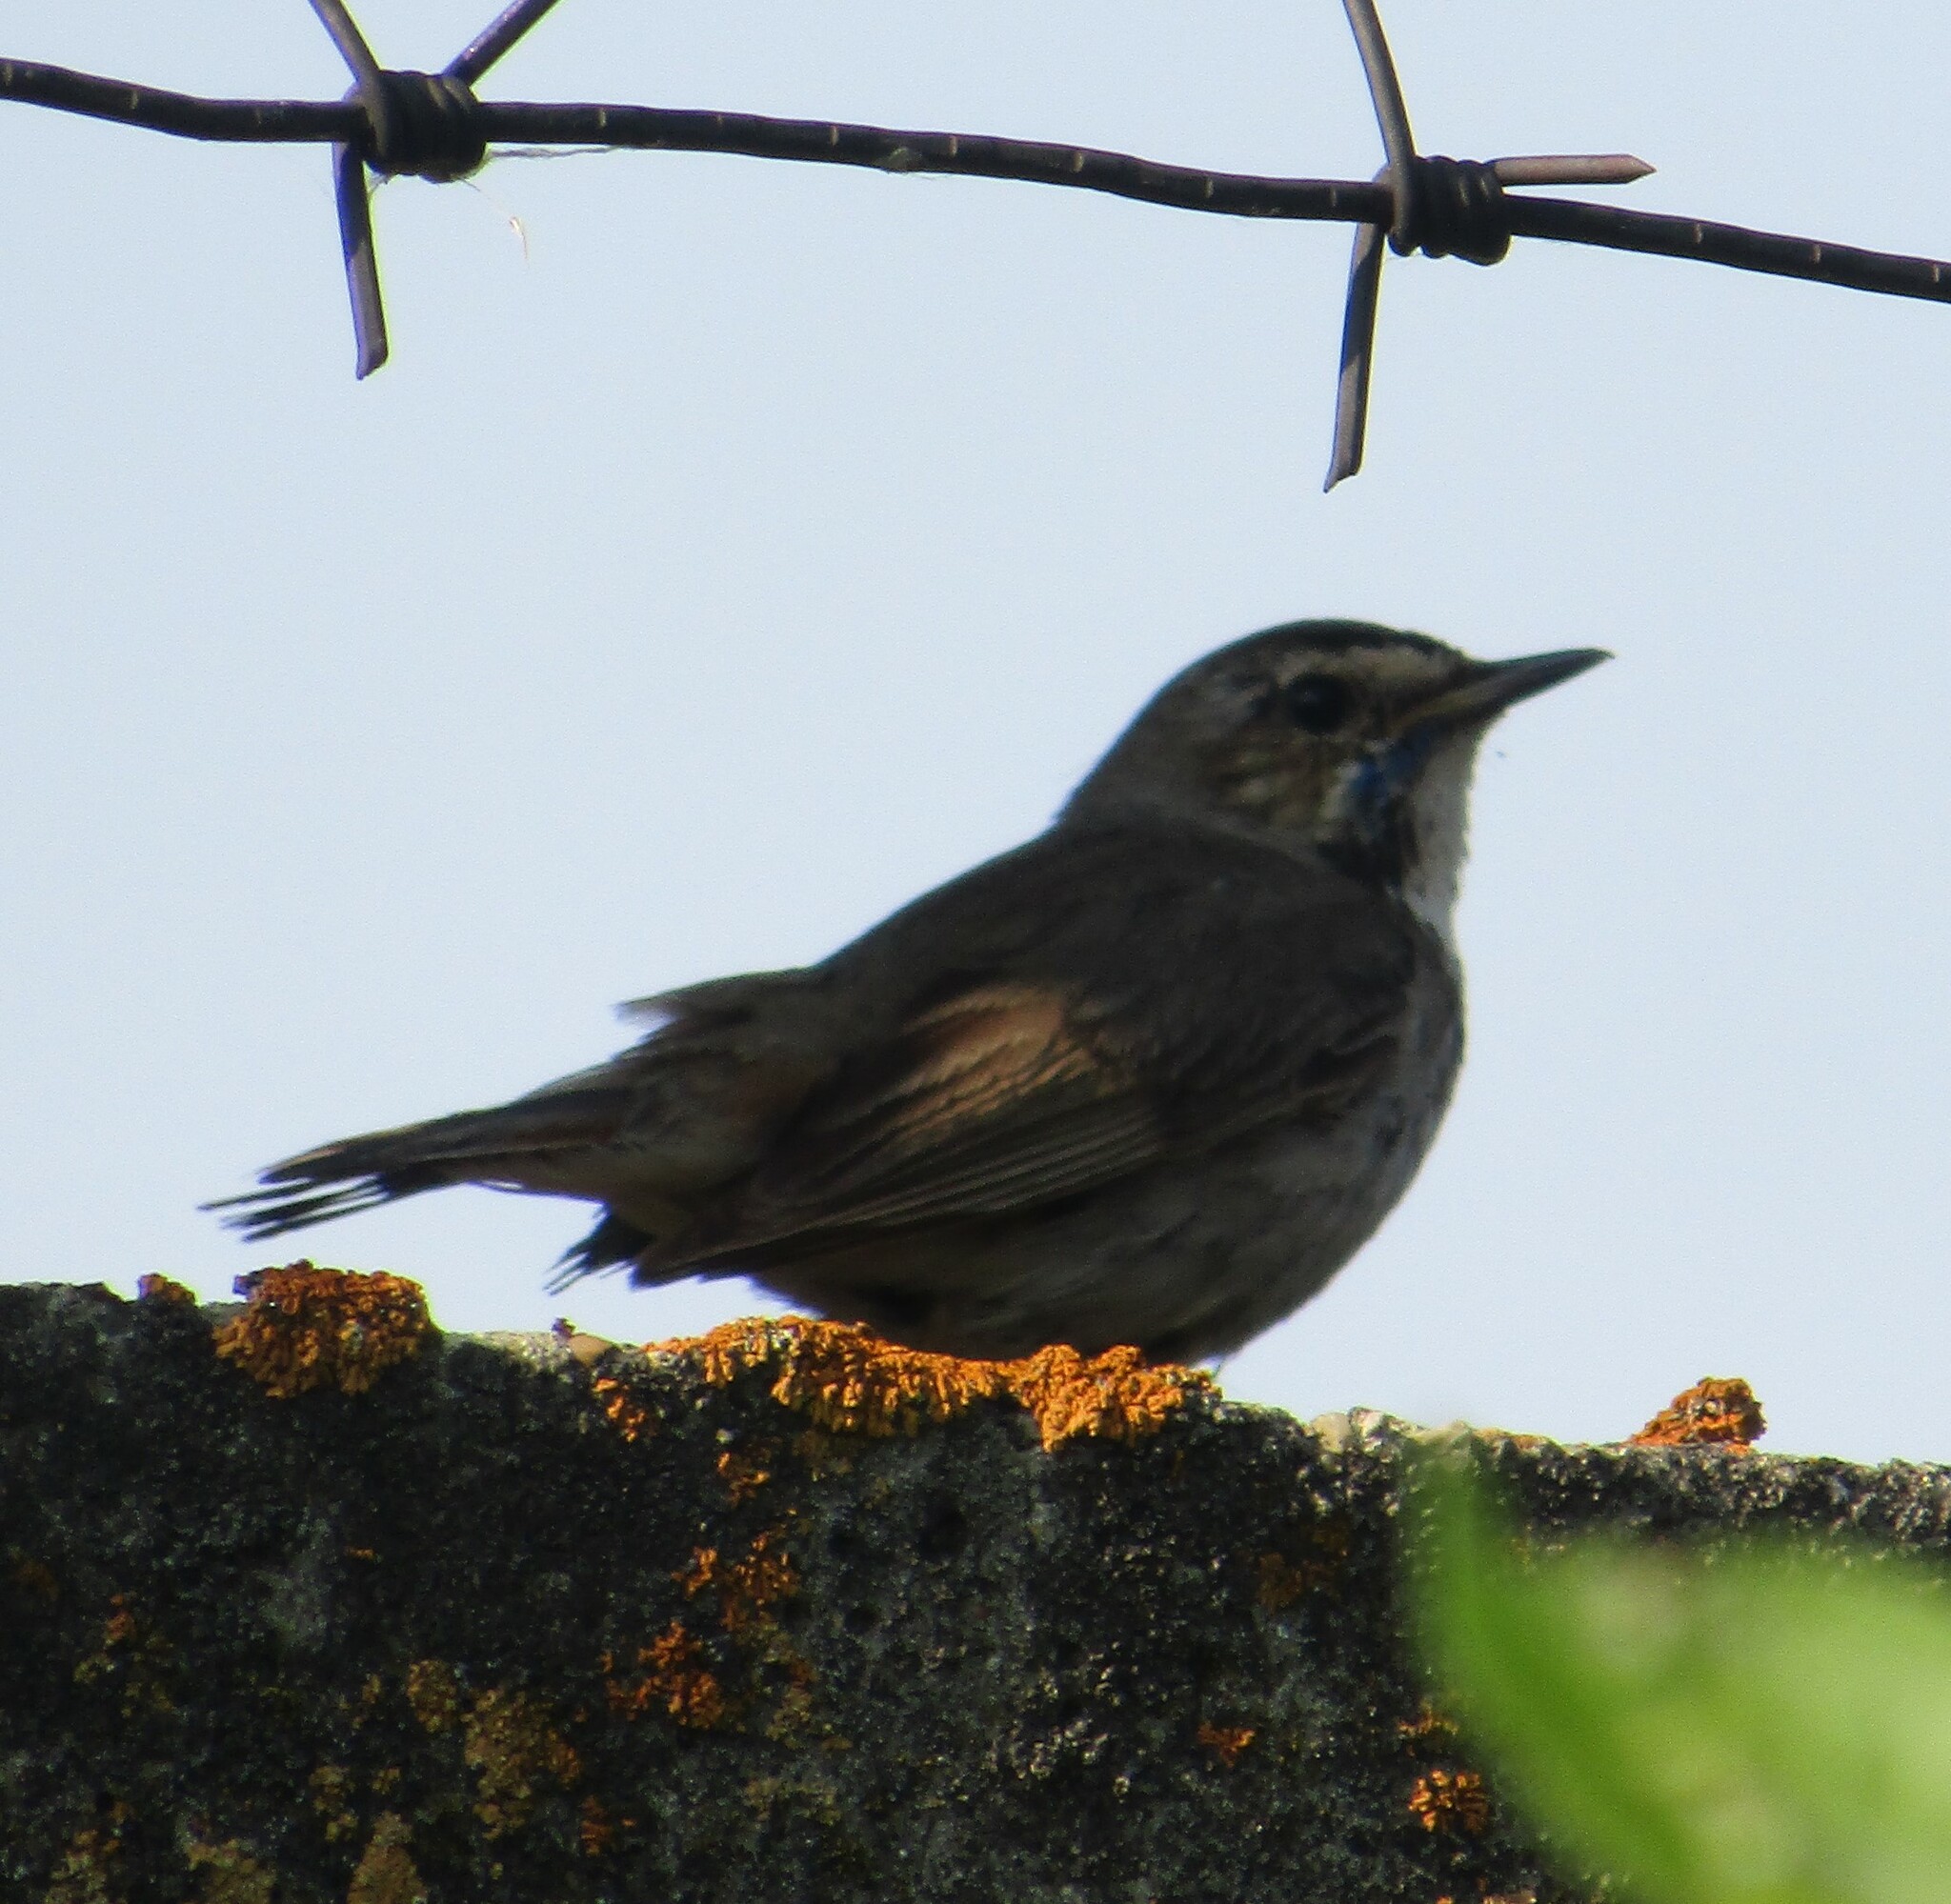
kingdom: Animalia
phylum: Chordata
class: Aves
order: Passeriformes
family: Muscicapidae
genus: Luscinia
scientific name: Luscinia svecica
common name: Bluethroat
